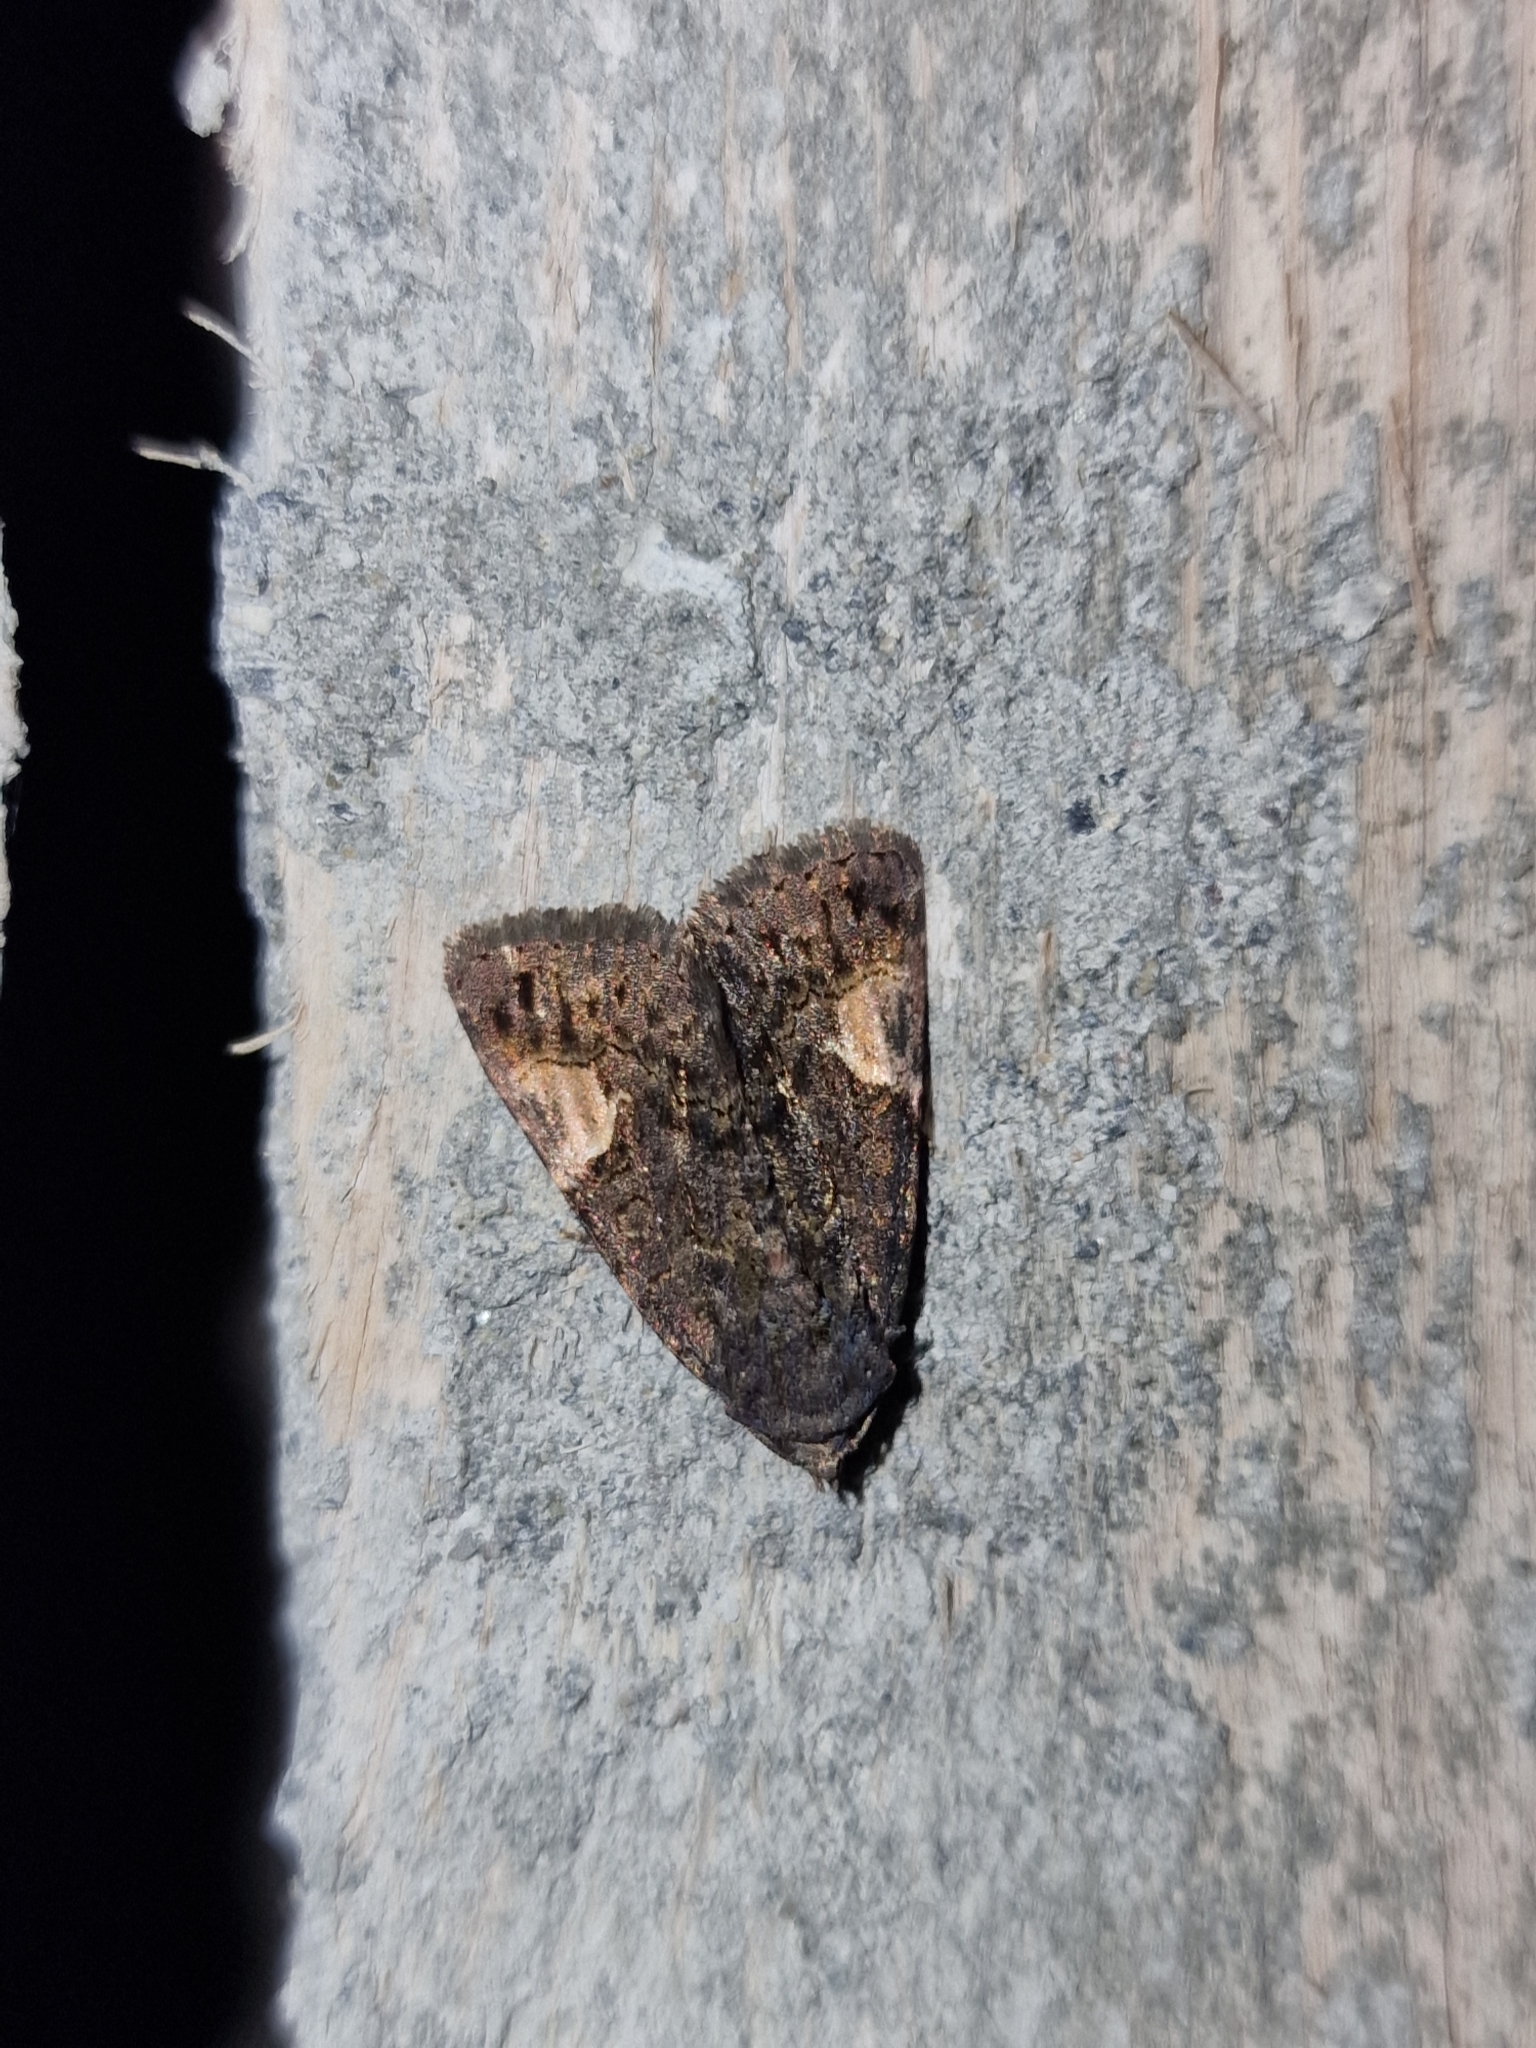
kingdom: Animalia
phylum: Arthropoda
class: Insecta
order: Lepidoptera
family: Noctuidae
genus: Aedia
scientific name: Aedia funesta
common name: The druid
